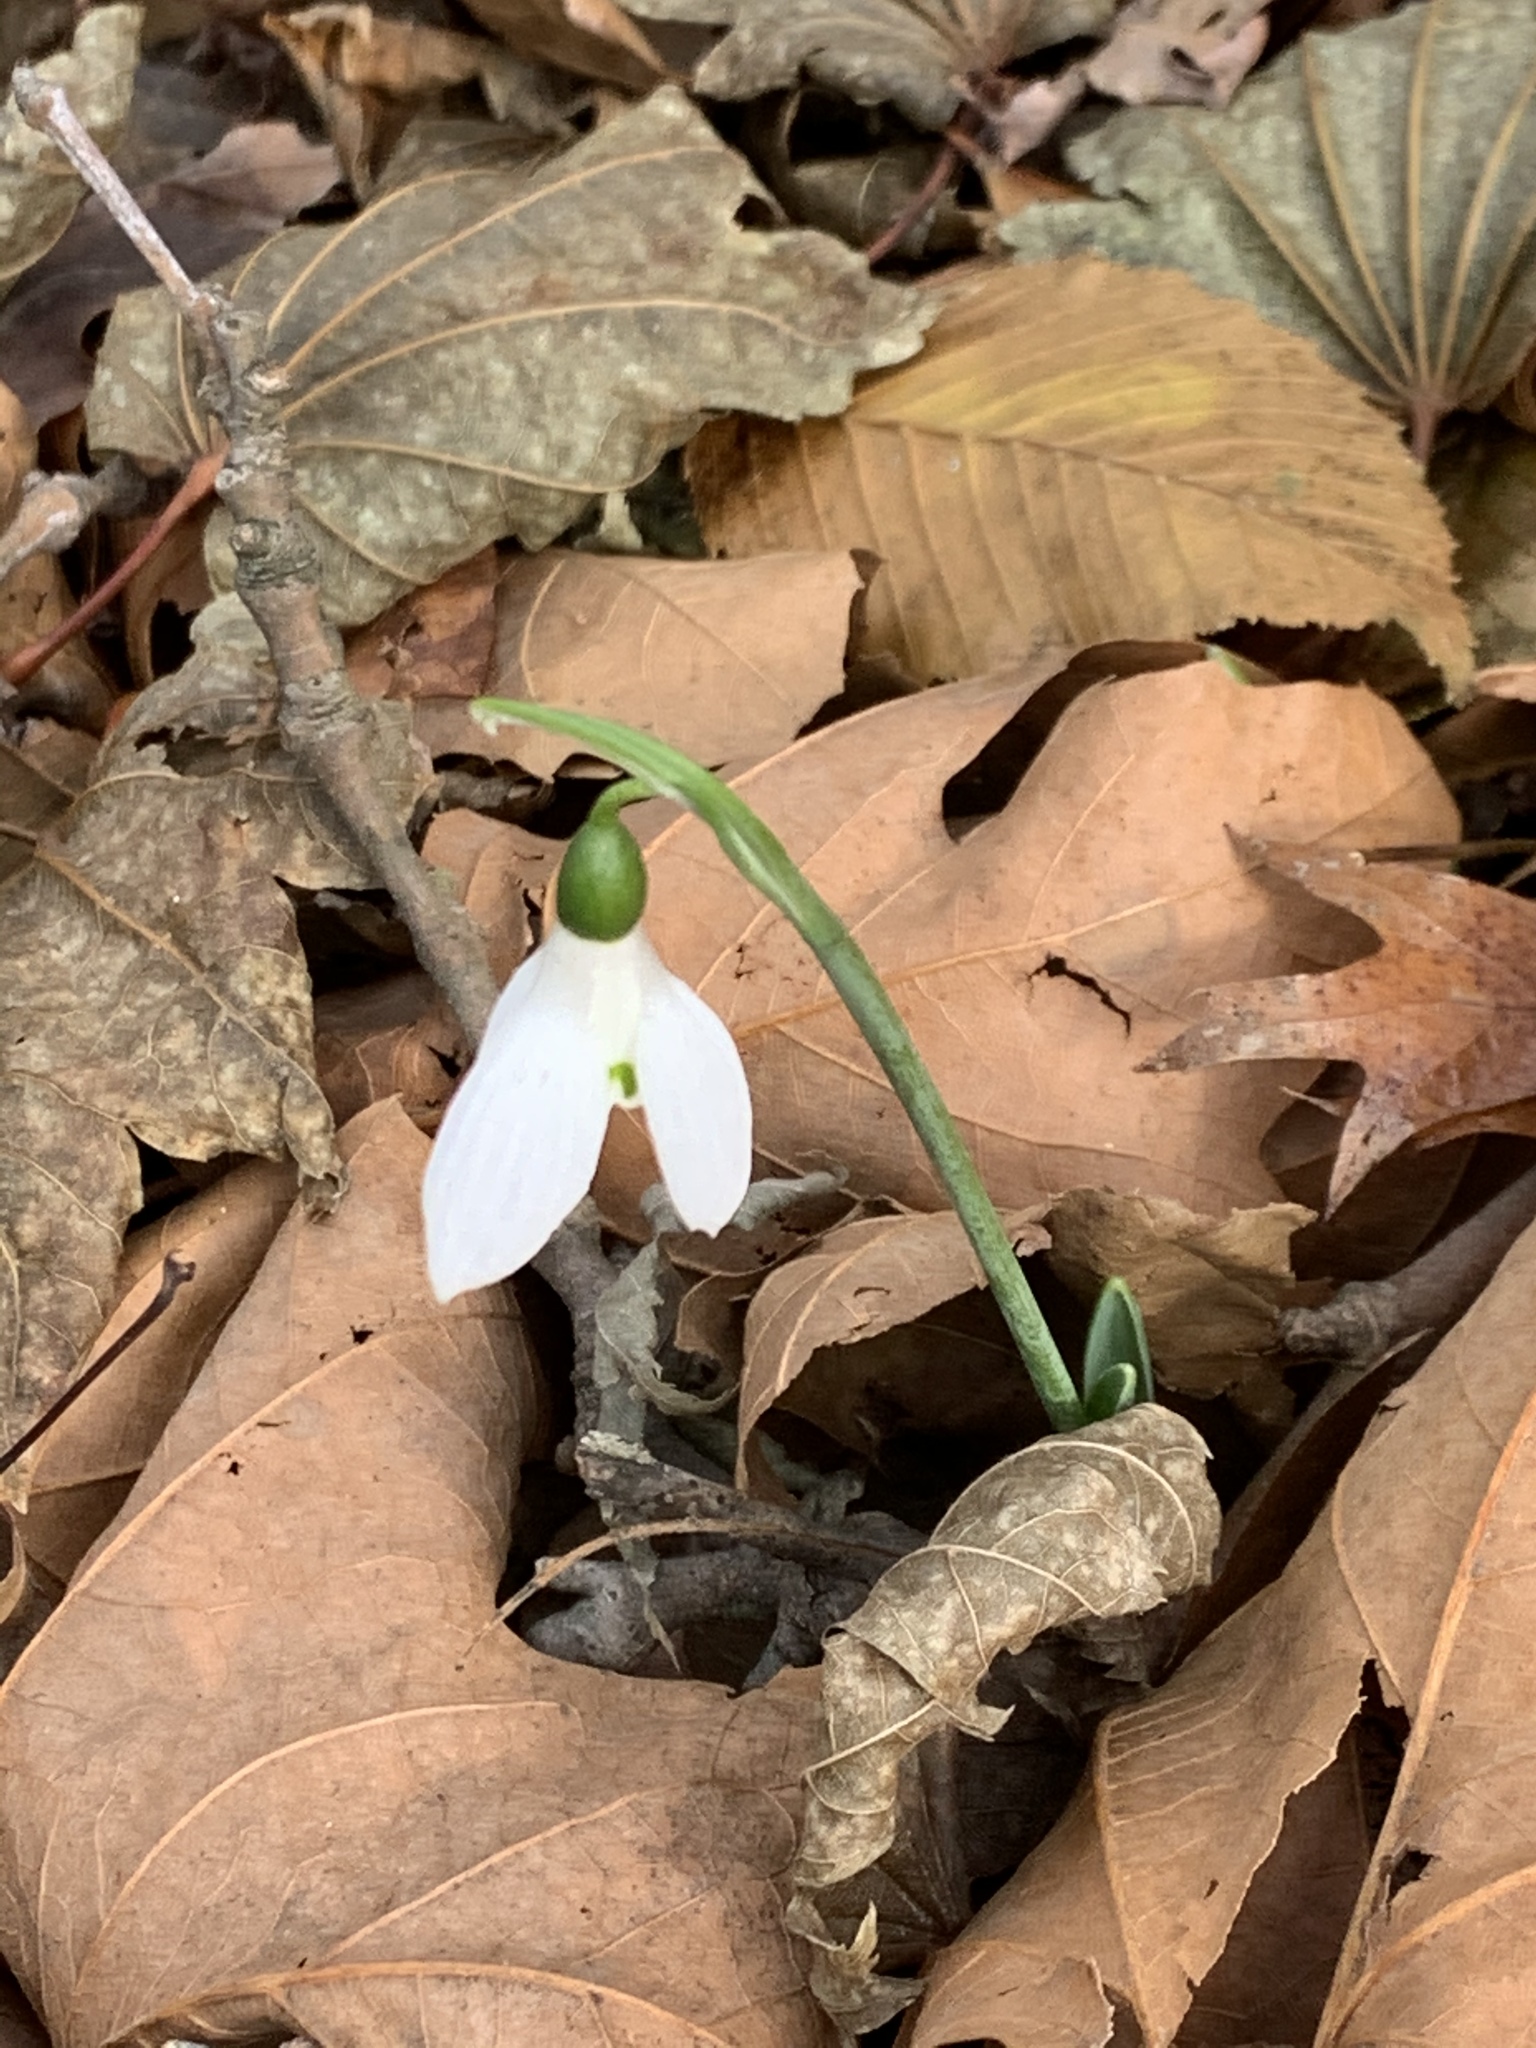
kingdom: Plantae
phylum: Tracheophyta
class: Liliopsida
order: Asparagales
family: Amaryllidaceae
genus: Galanthus
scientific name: Galanthus elwesii
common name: Greater snowdrop
